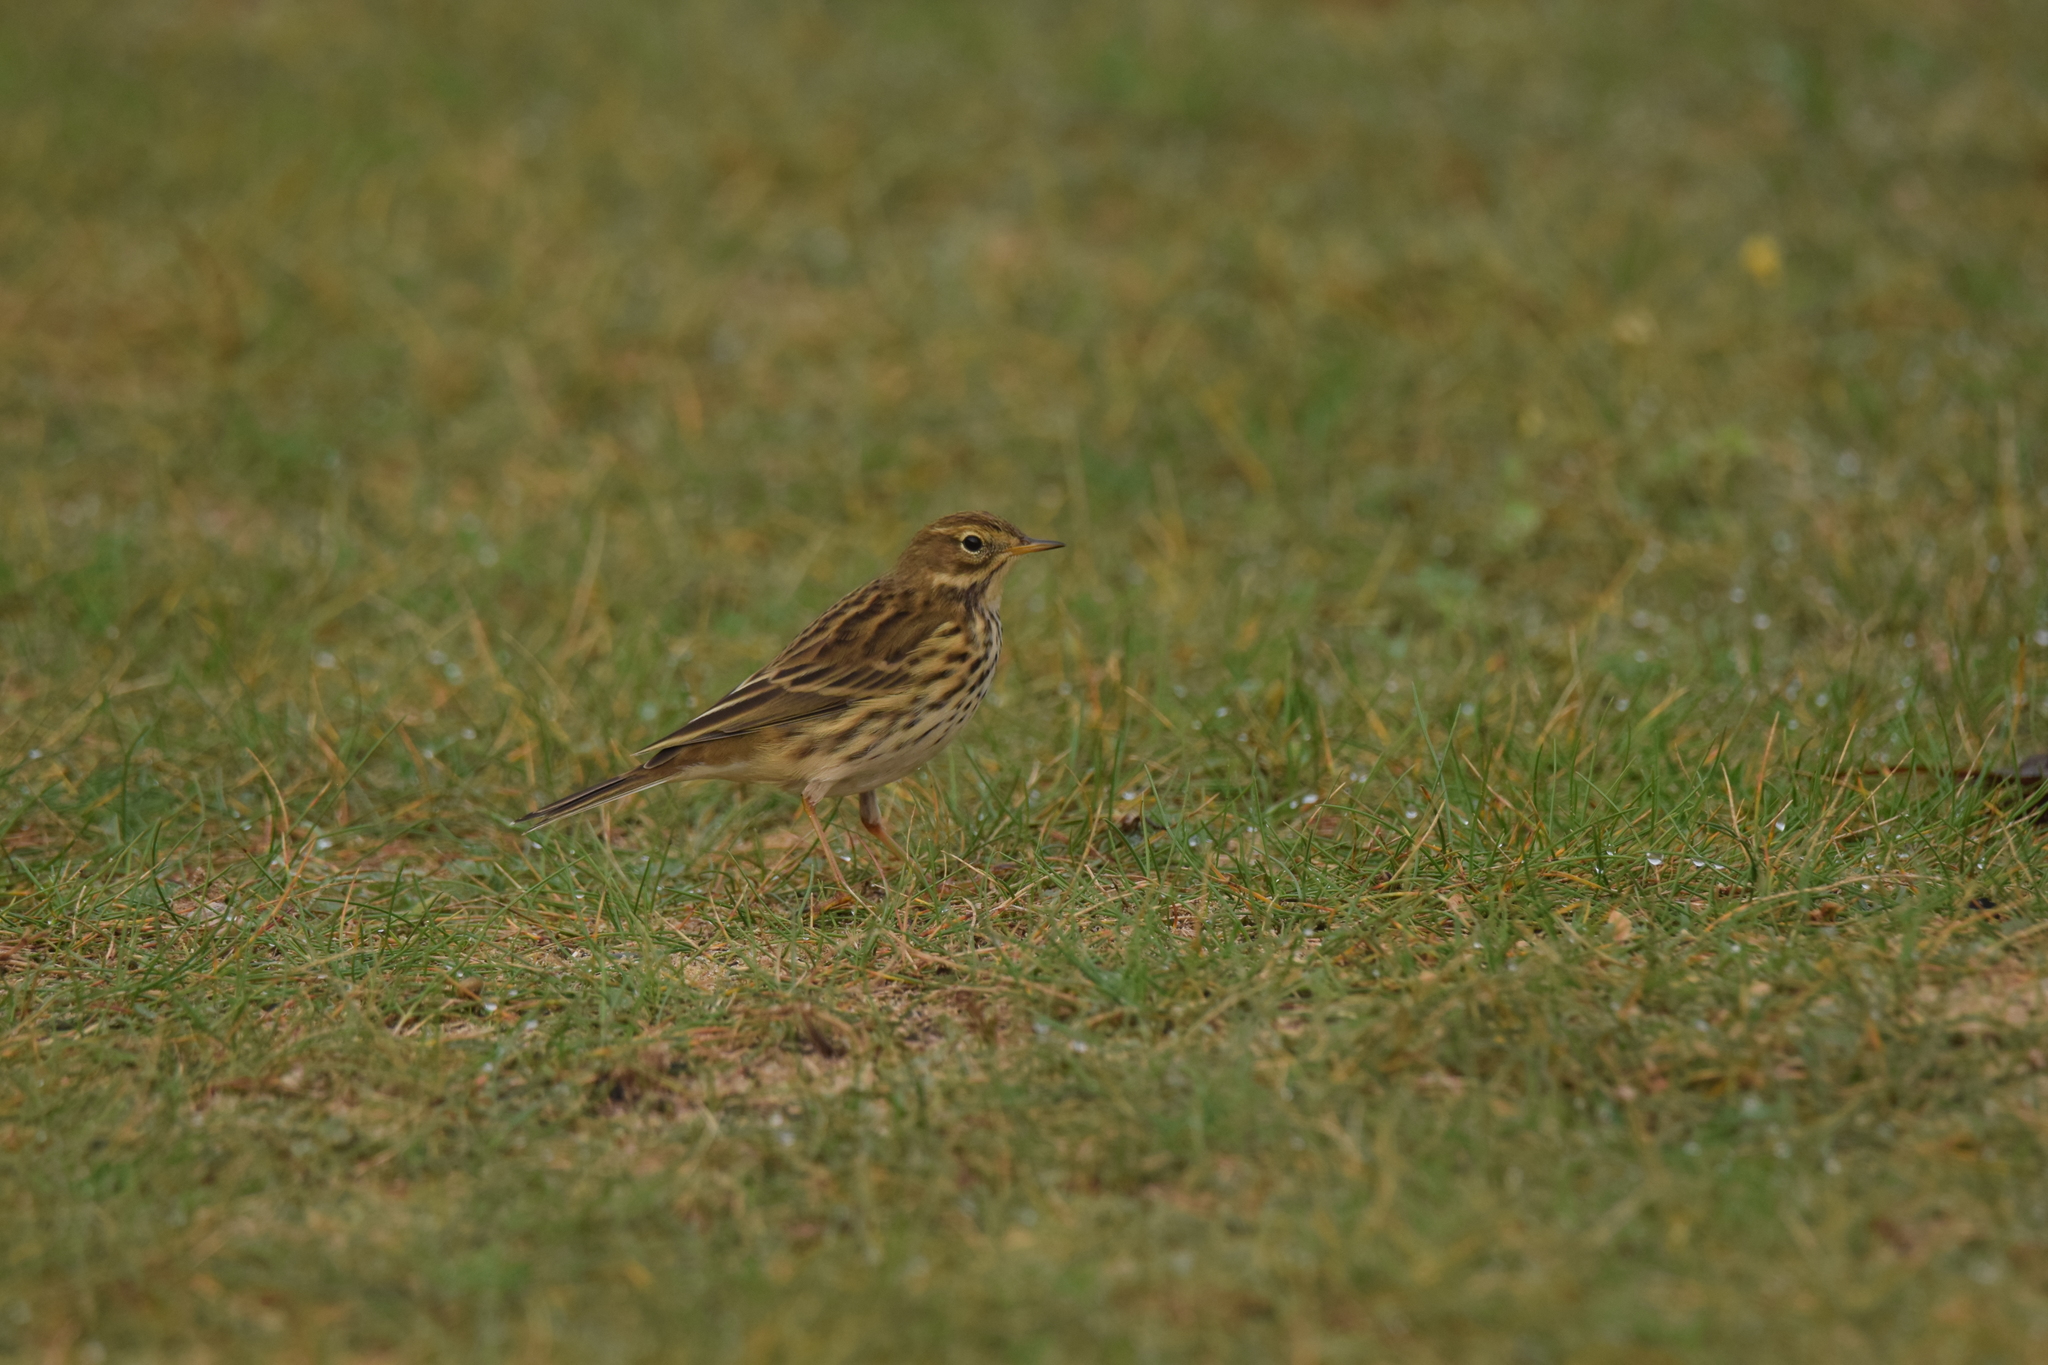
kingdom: Animalia
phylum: Chordata
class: Aves
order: Passeriformes
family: Motacillidae
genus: Anthus
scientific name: Anthus pratensis
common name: Meadow pipit
